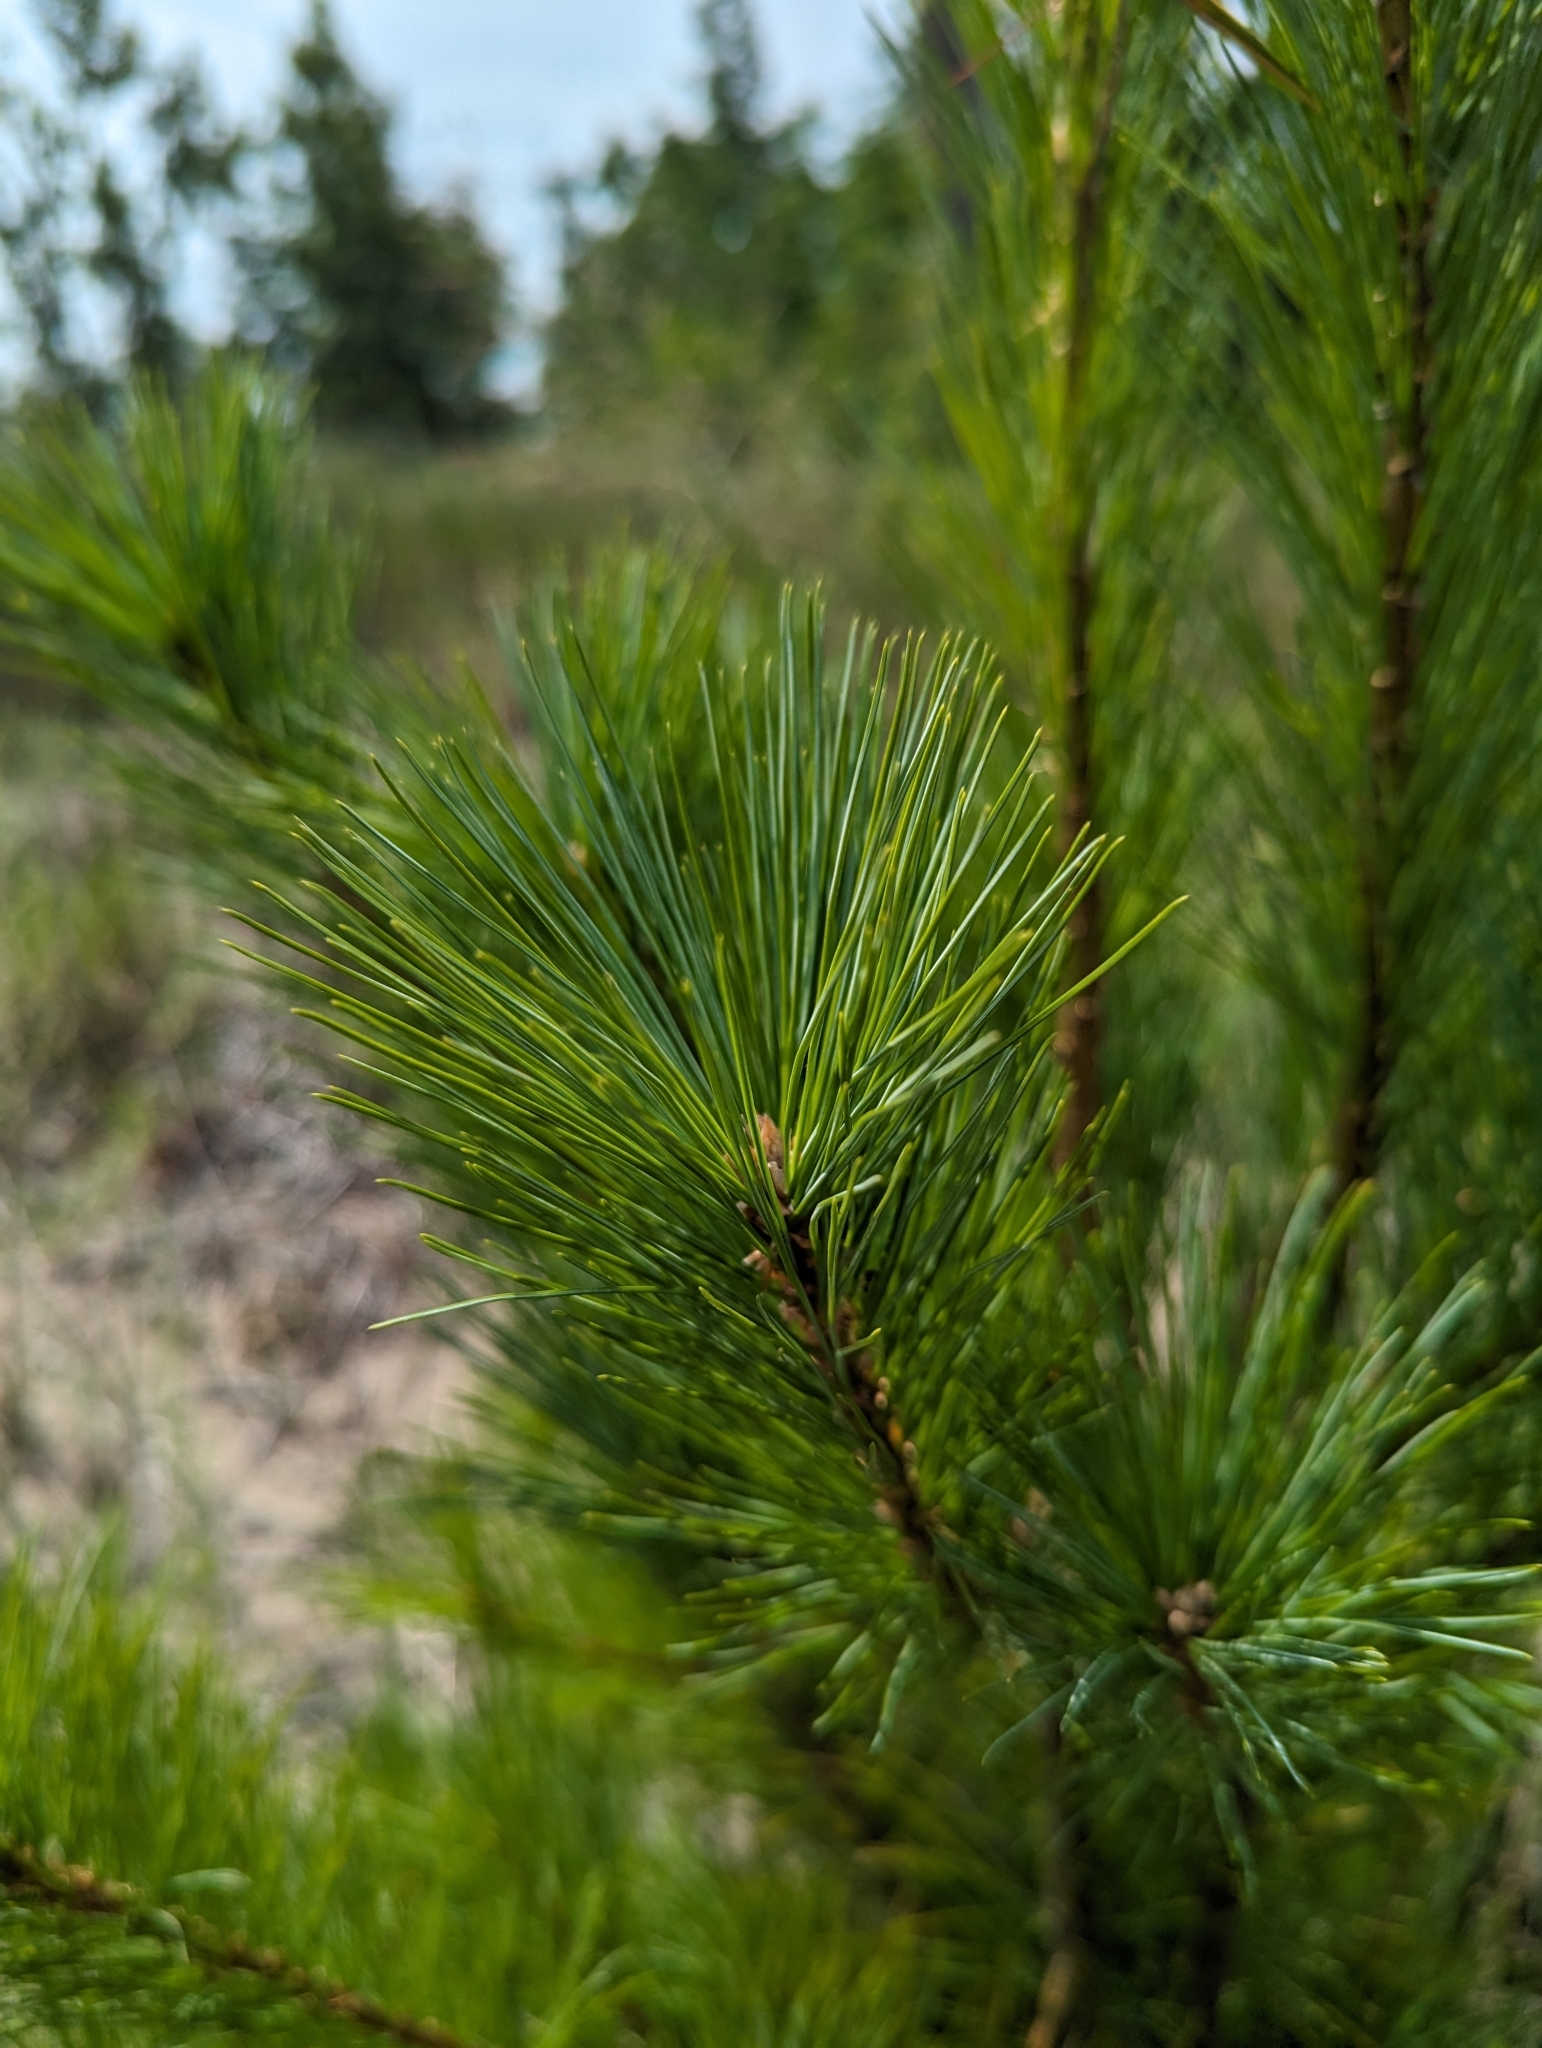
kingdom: Plantae
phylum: Tracheophyta
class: Pinopsida
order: Pinales
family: Pinaceae
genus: Pinus
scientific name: Pinus strobus
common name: Weymouth pine
